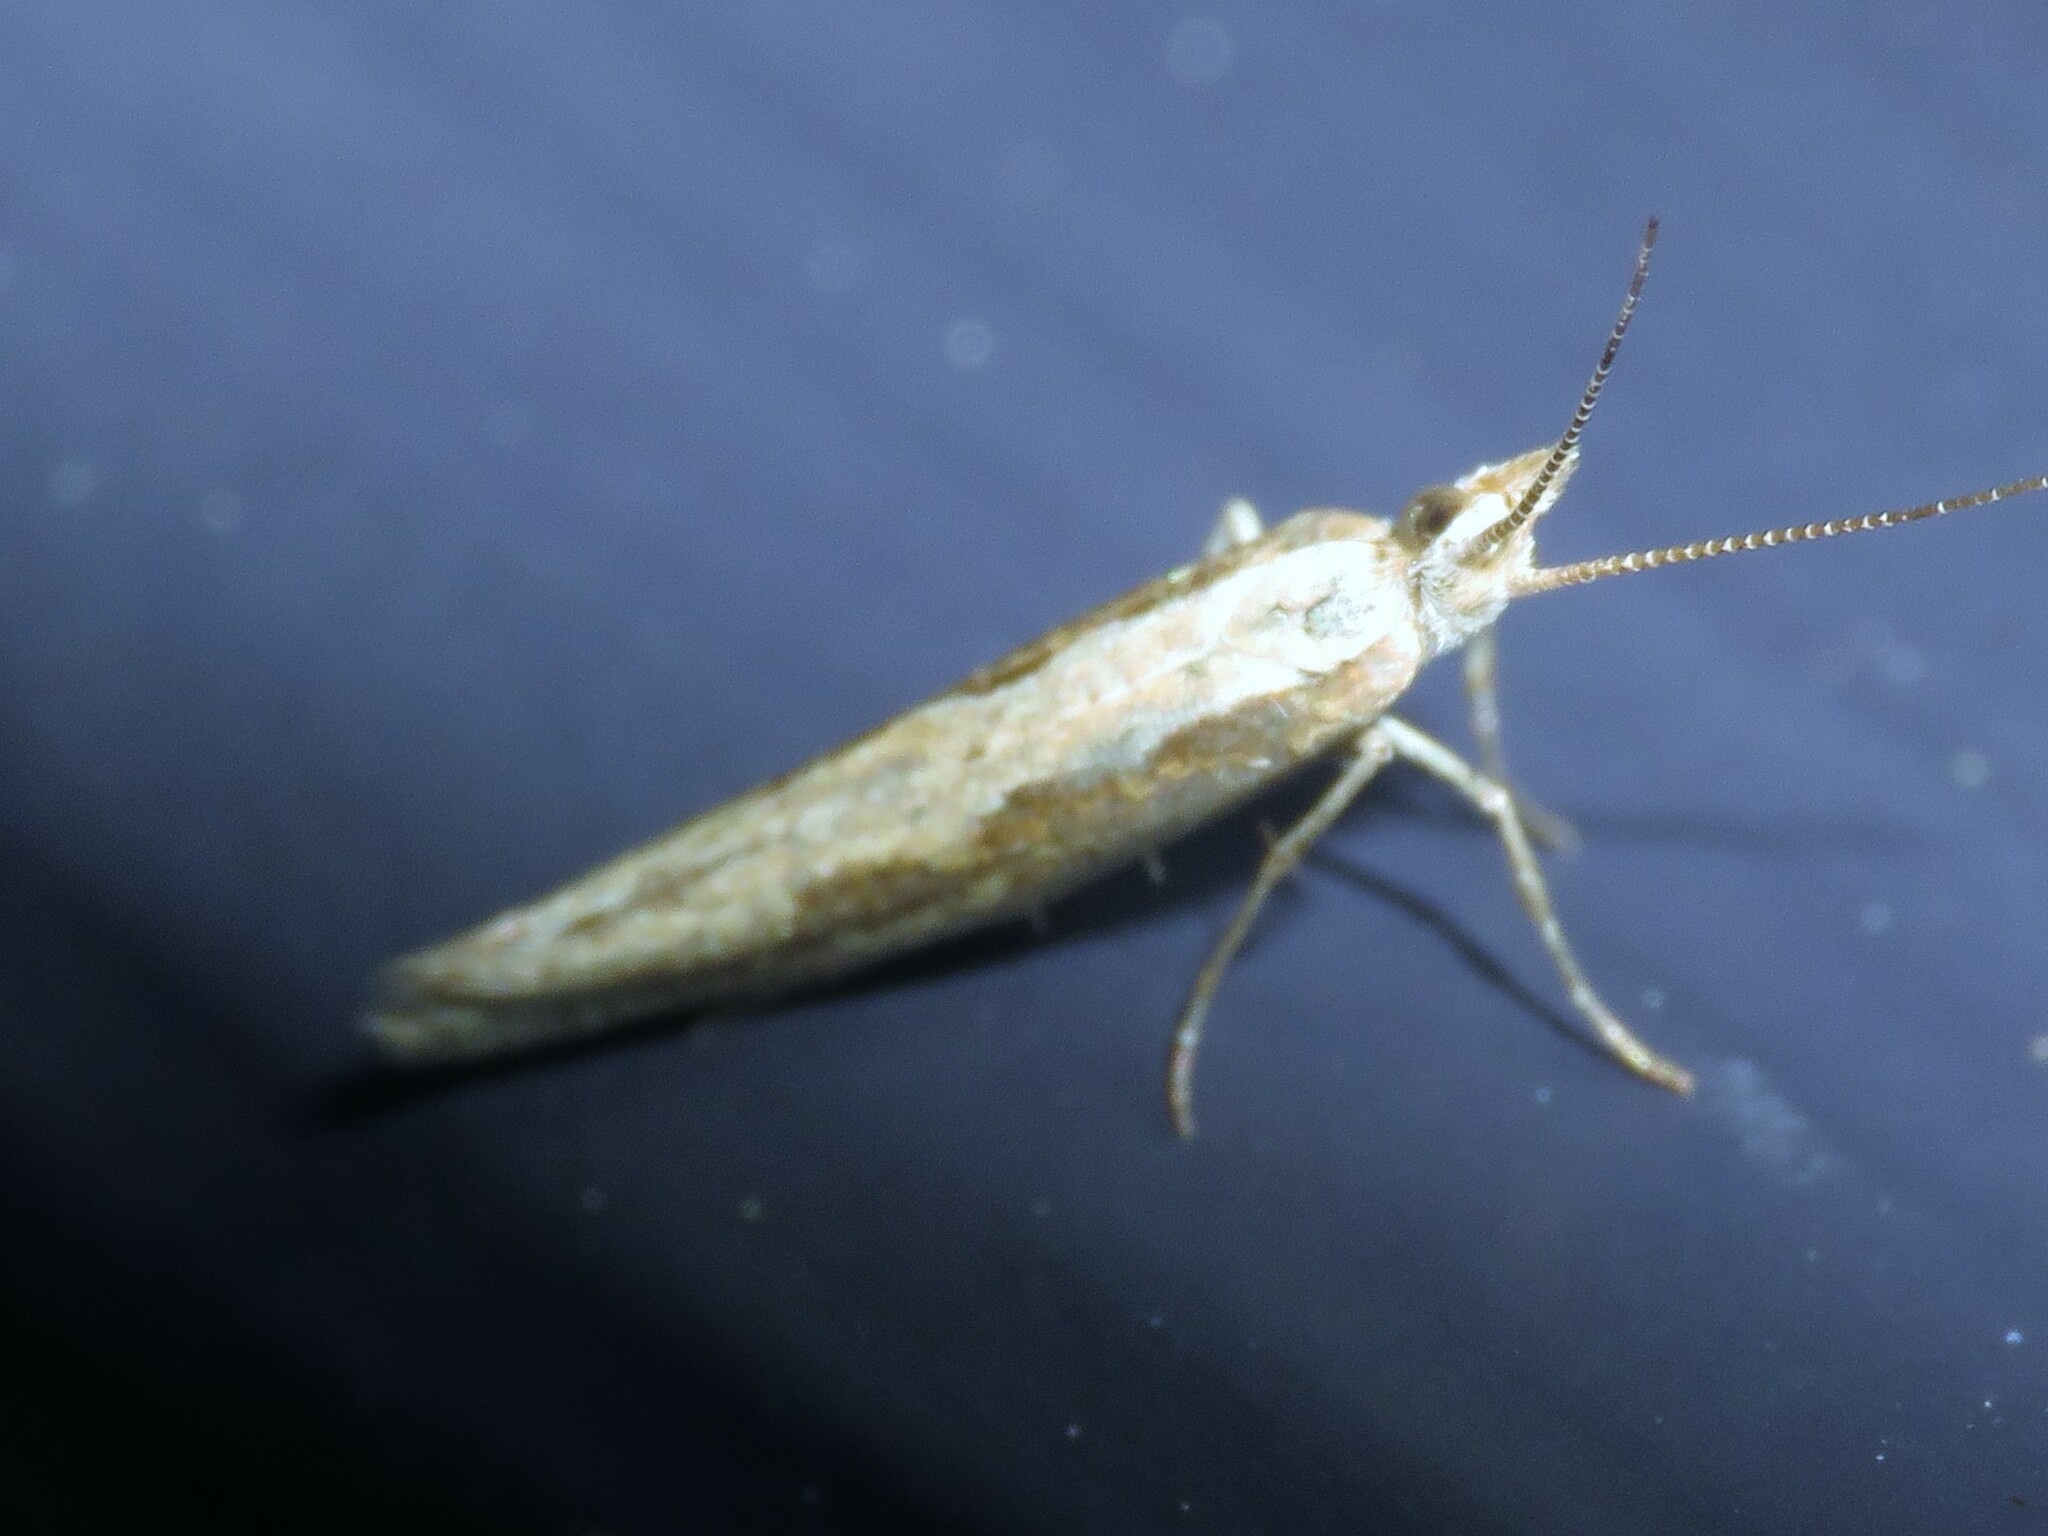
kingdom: Animalia
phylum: Arthropoda
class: Insecta
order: Lepidoptera
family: Plutellidae
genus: Plutella
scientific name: Plutella xylostella
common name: Diamond-back moth
